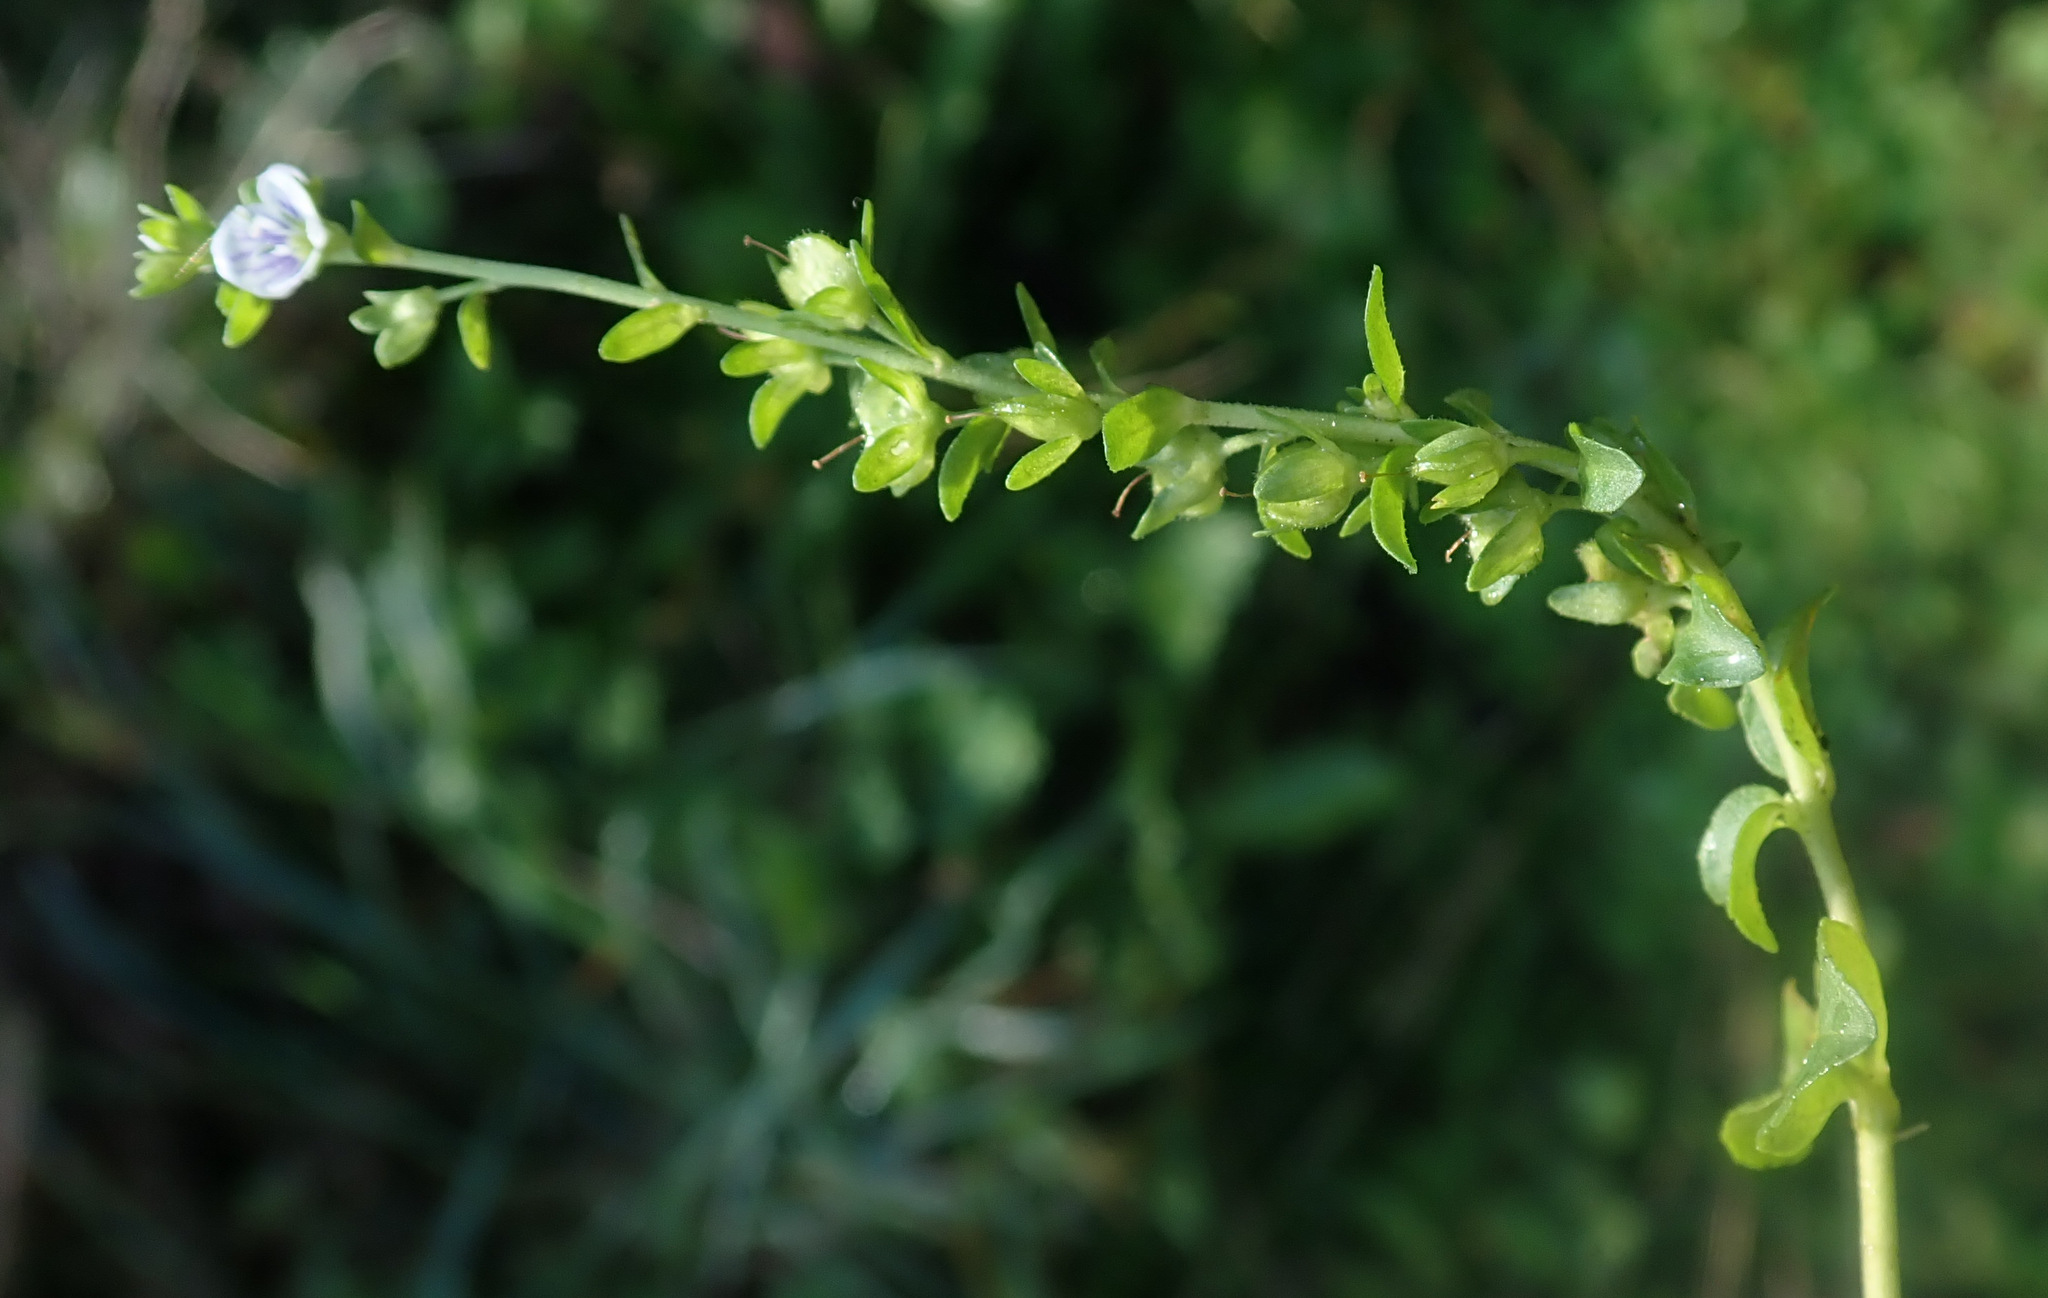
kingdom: Plantae
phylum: Tracheophyta
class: Magnoliopsida
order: Lamiales
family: Plantaginaceae
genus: Veronica
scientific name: Veronica serpyllifolia
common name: Thyme-leaved speedwell
